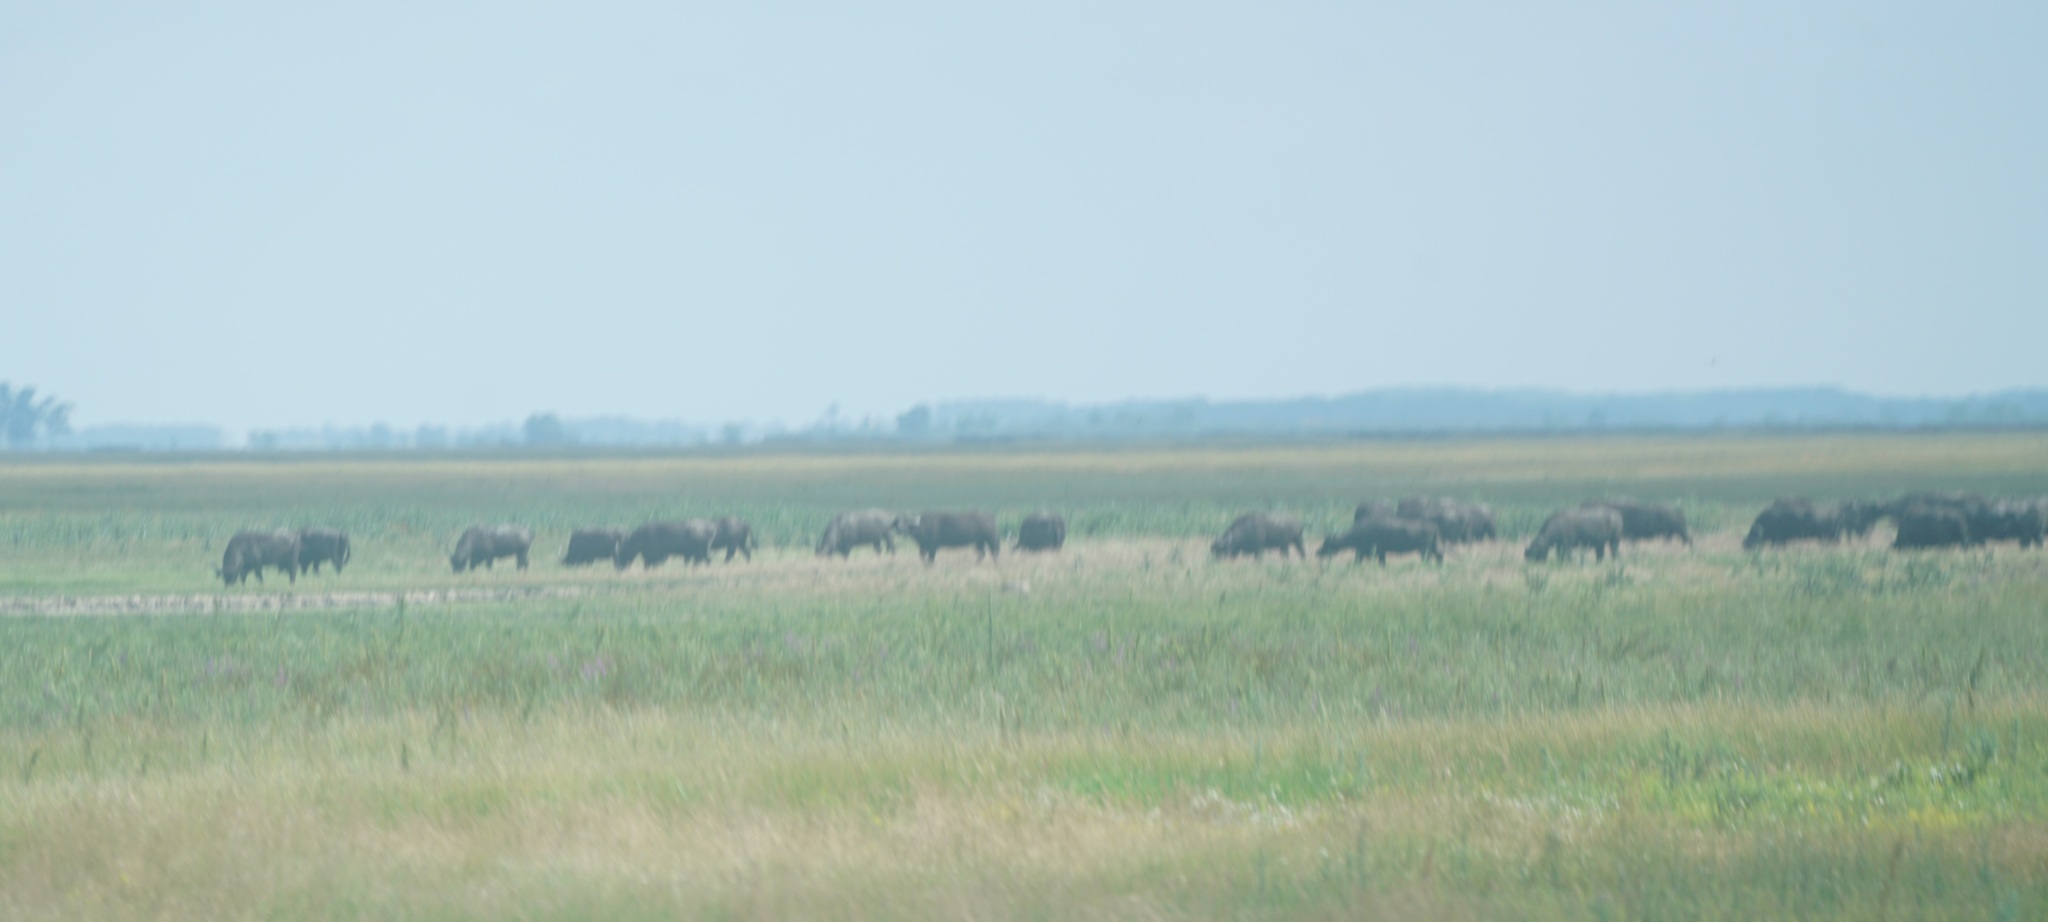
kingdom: Animalia
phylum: Chordata
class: Mammalia
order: Artiodactyla
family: Bovidae
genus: Bubalus
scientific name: Bubalus bubalis
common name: Water buffalo
